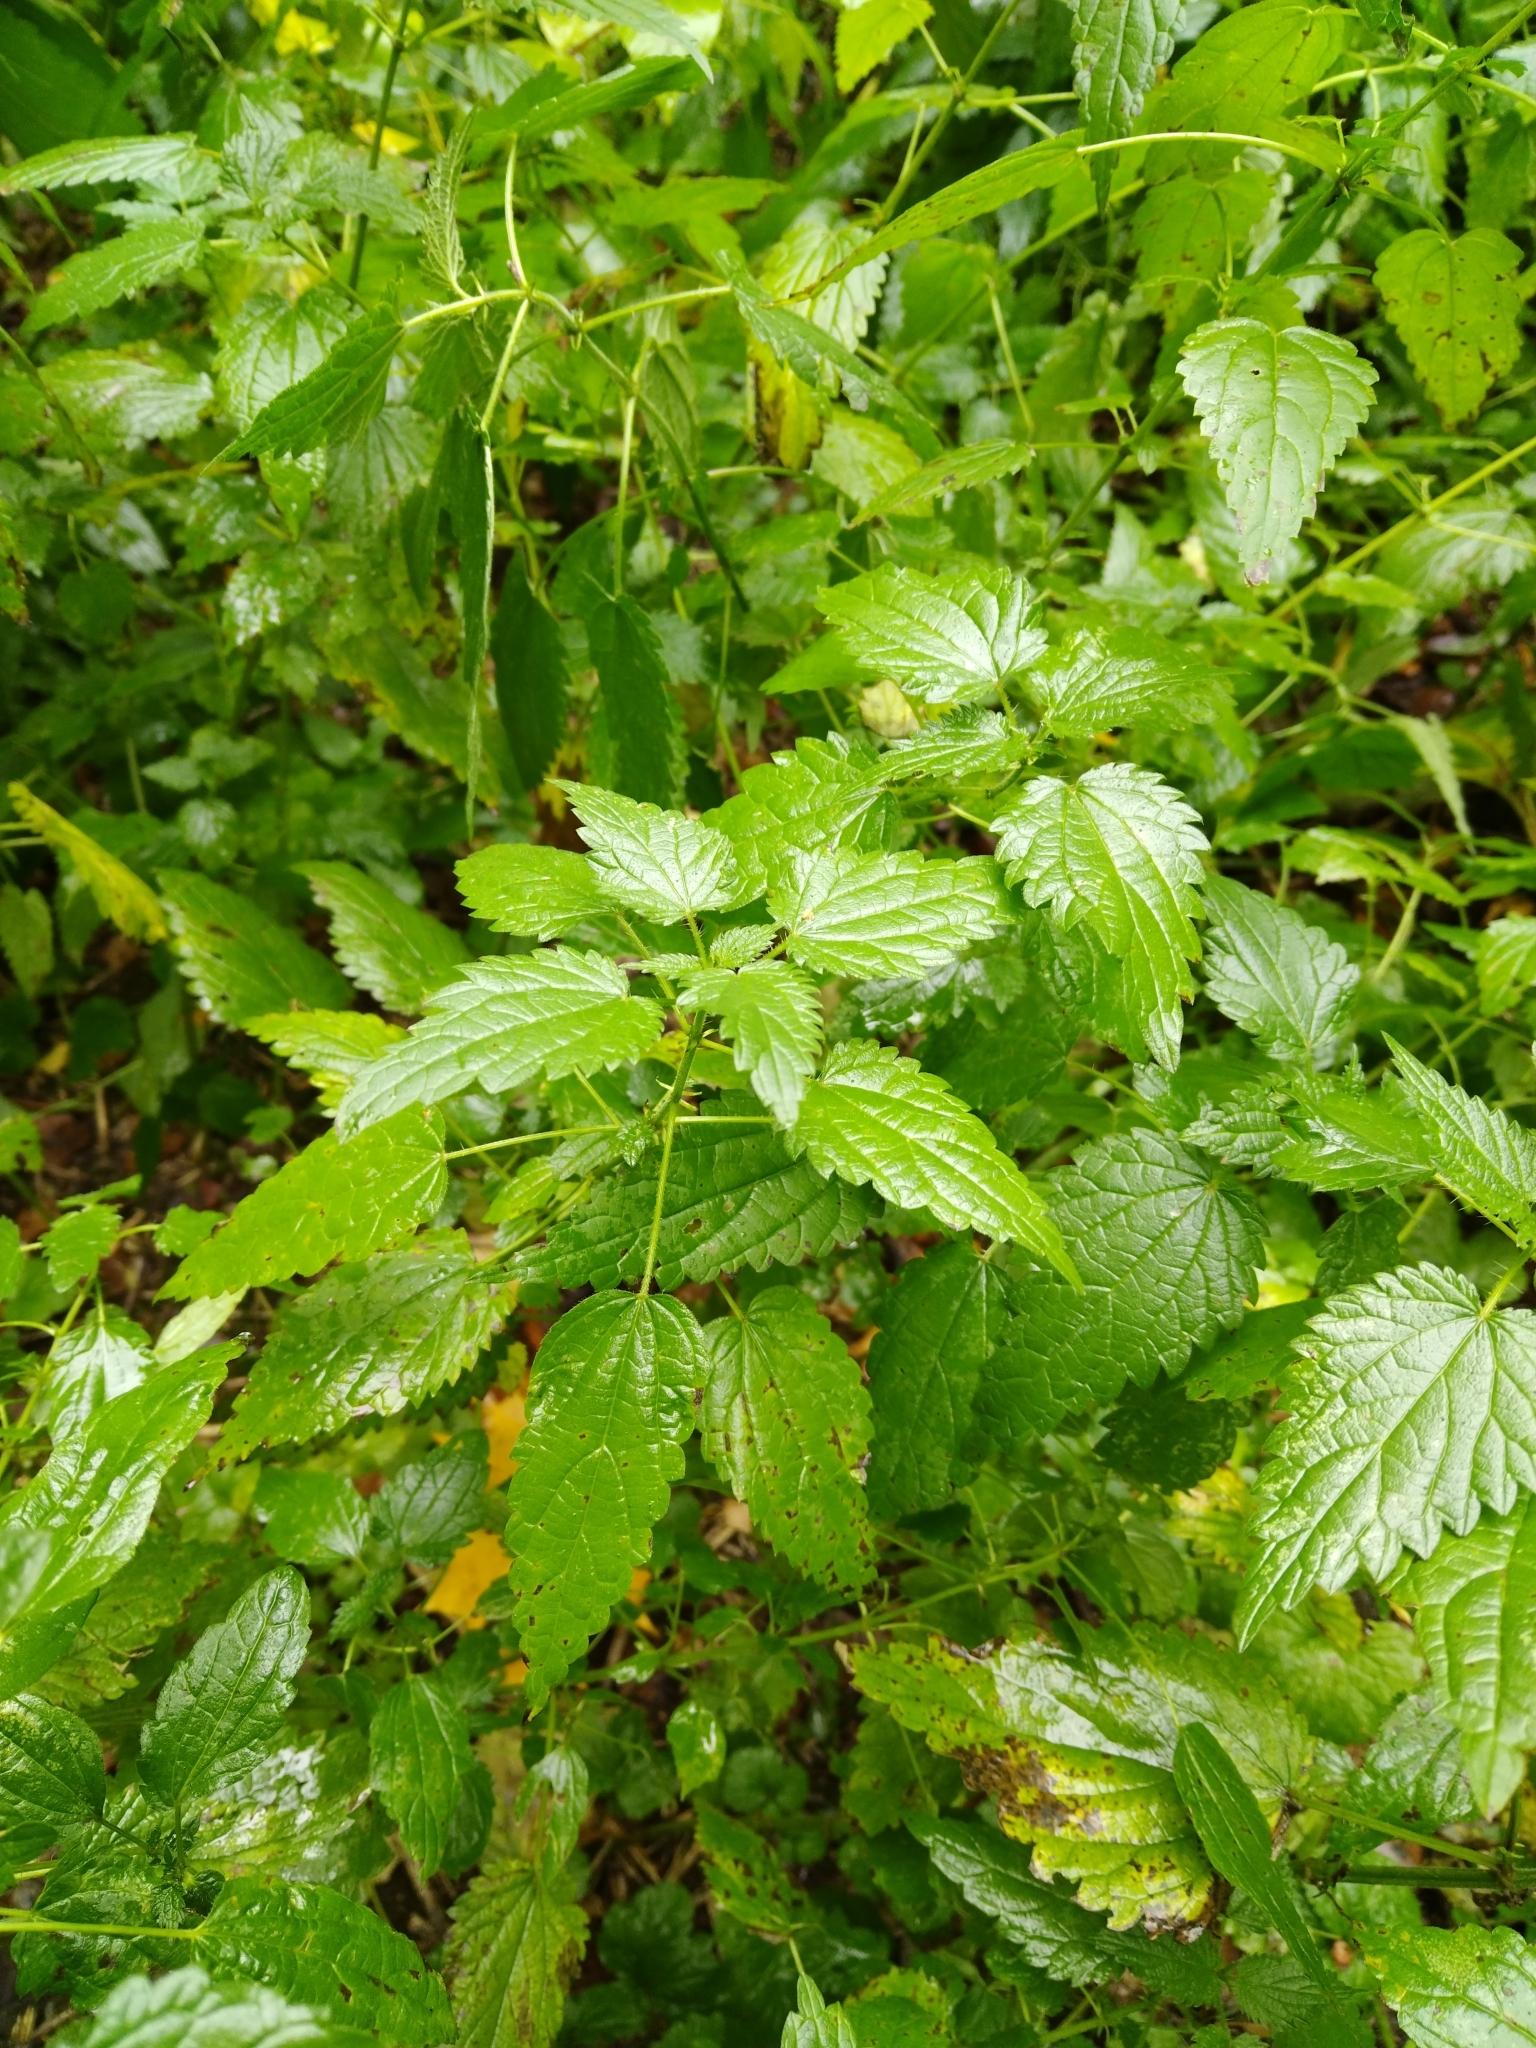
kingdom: Plantae
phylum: Tracheophyta
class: Magnoliopsida
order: Rosales
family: Urticaceae
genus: Urtica
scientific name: Urtica dioica
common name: Common nettle
